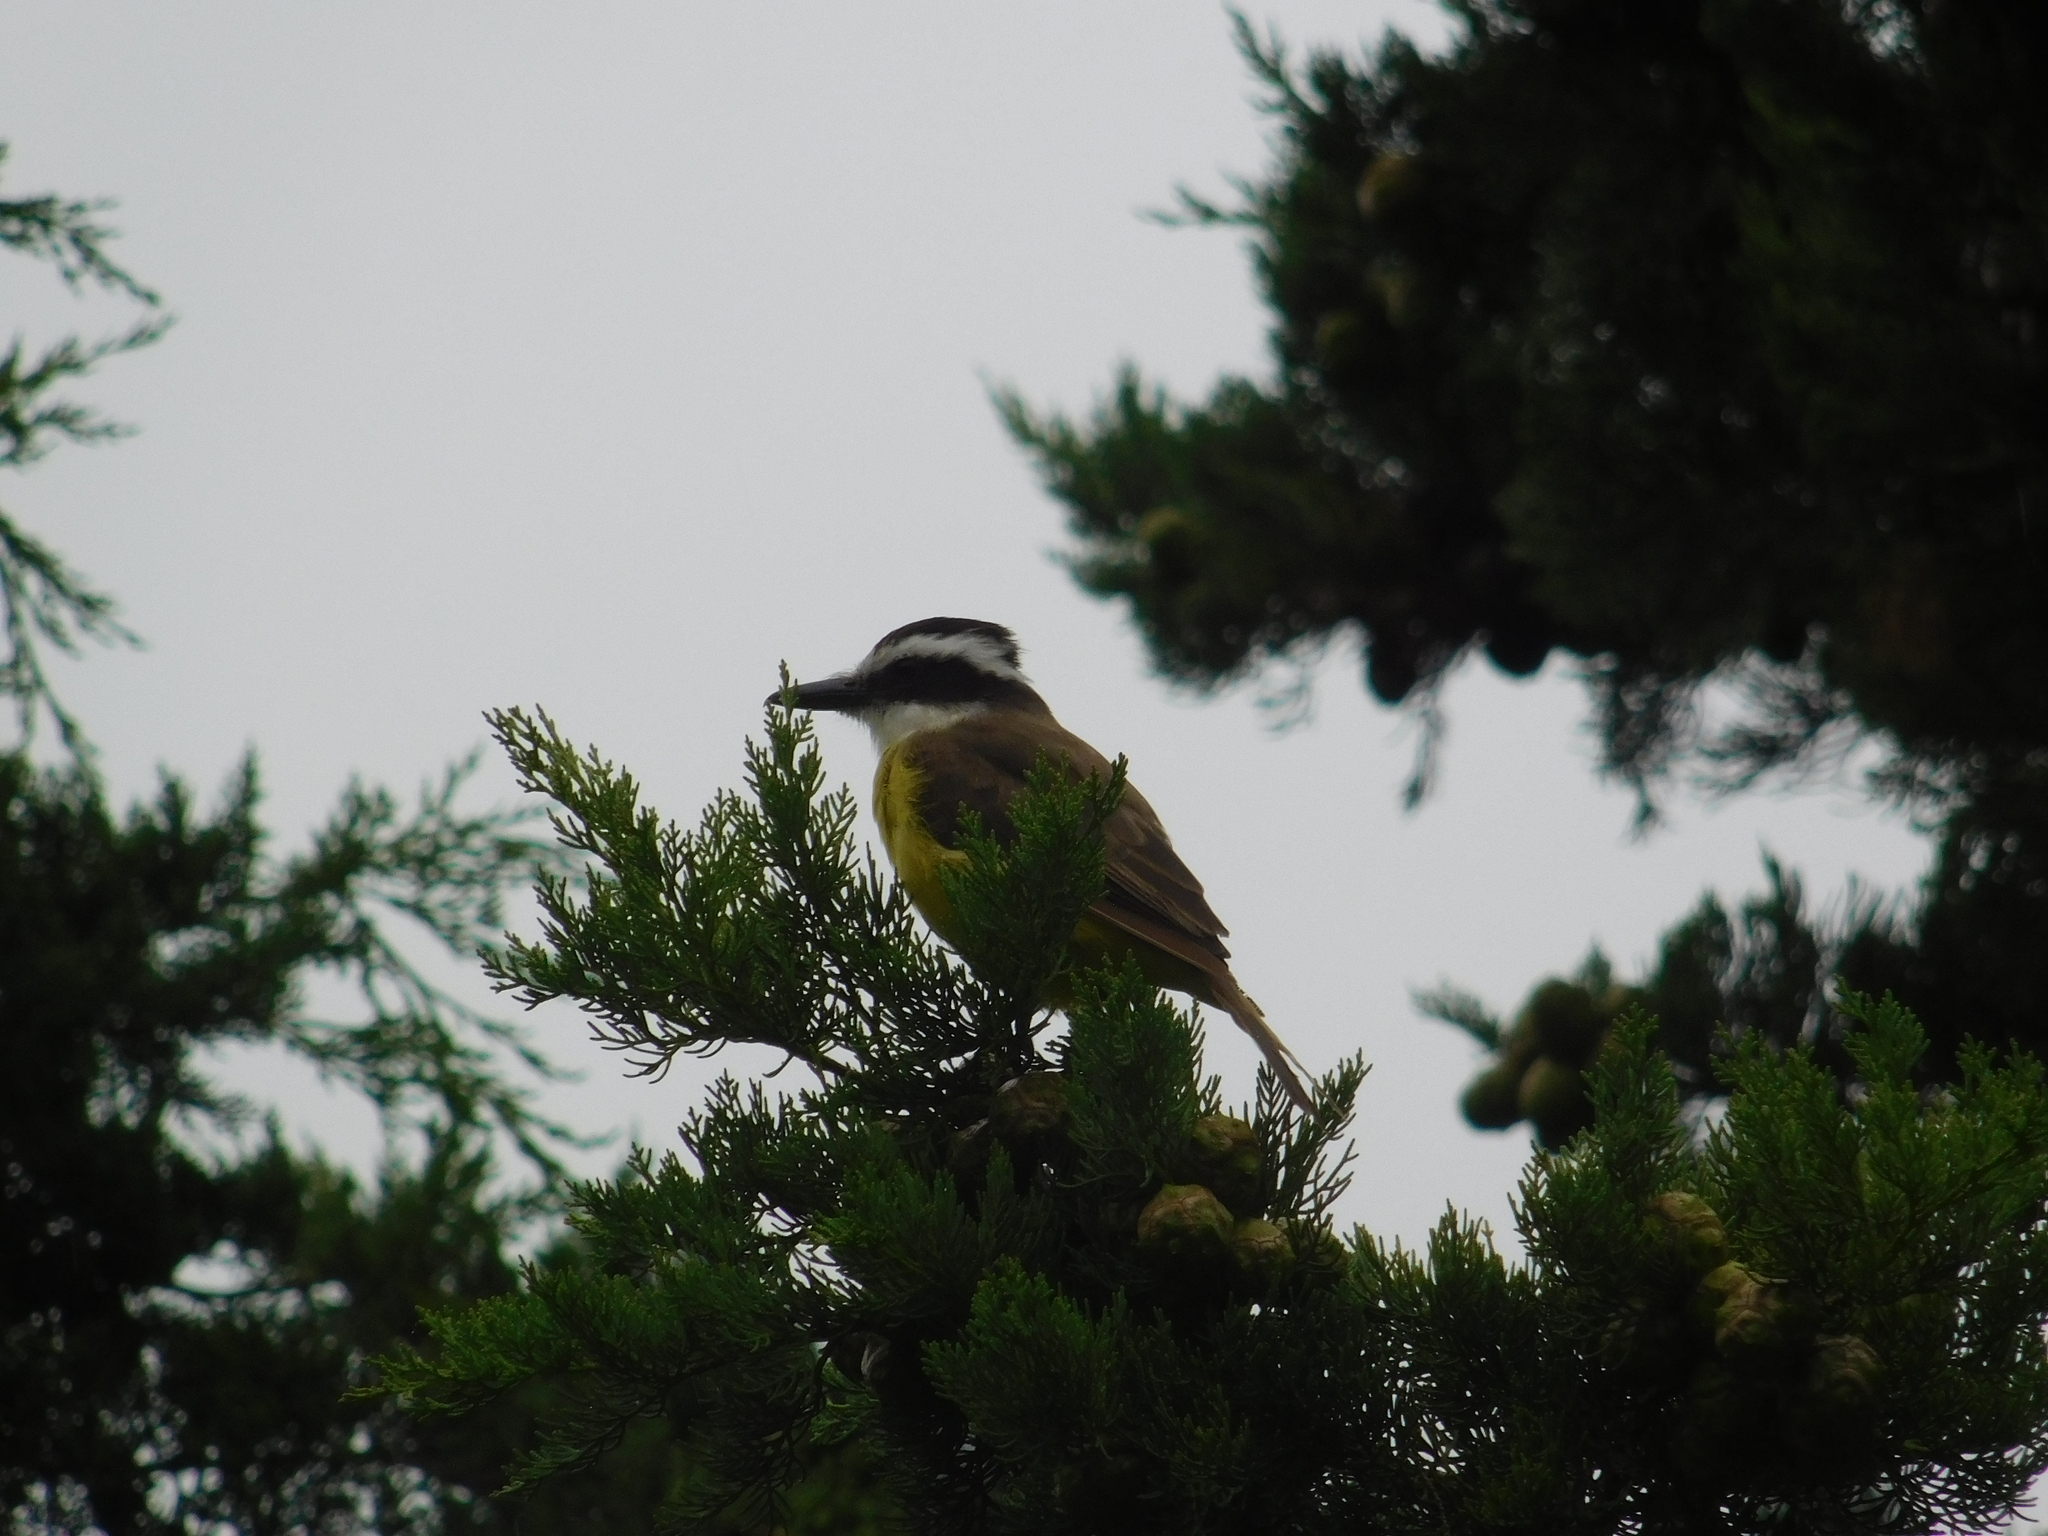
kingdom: Animalia
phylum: Chordata
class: Aves
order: Passeriformes
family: Tyrannidae
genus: Pitangus
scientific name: Pitangus sulphuratus
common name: Great kiskadee
